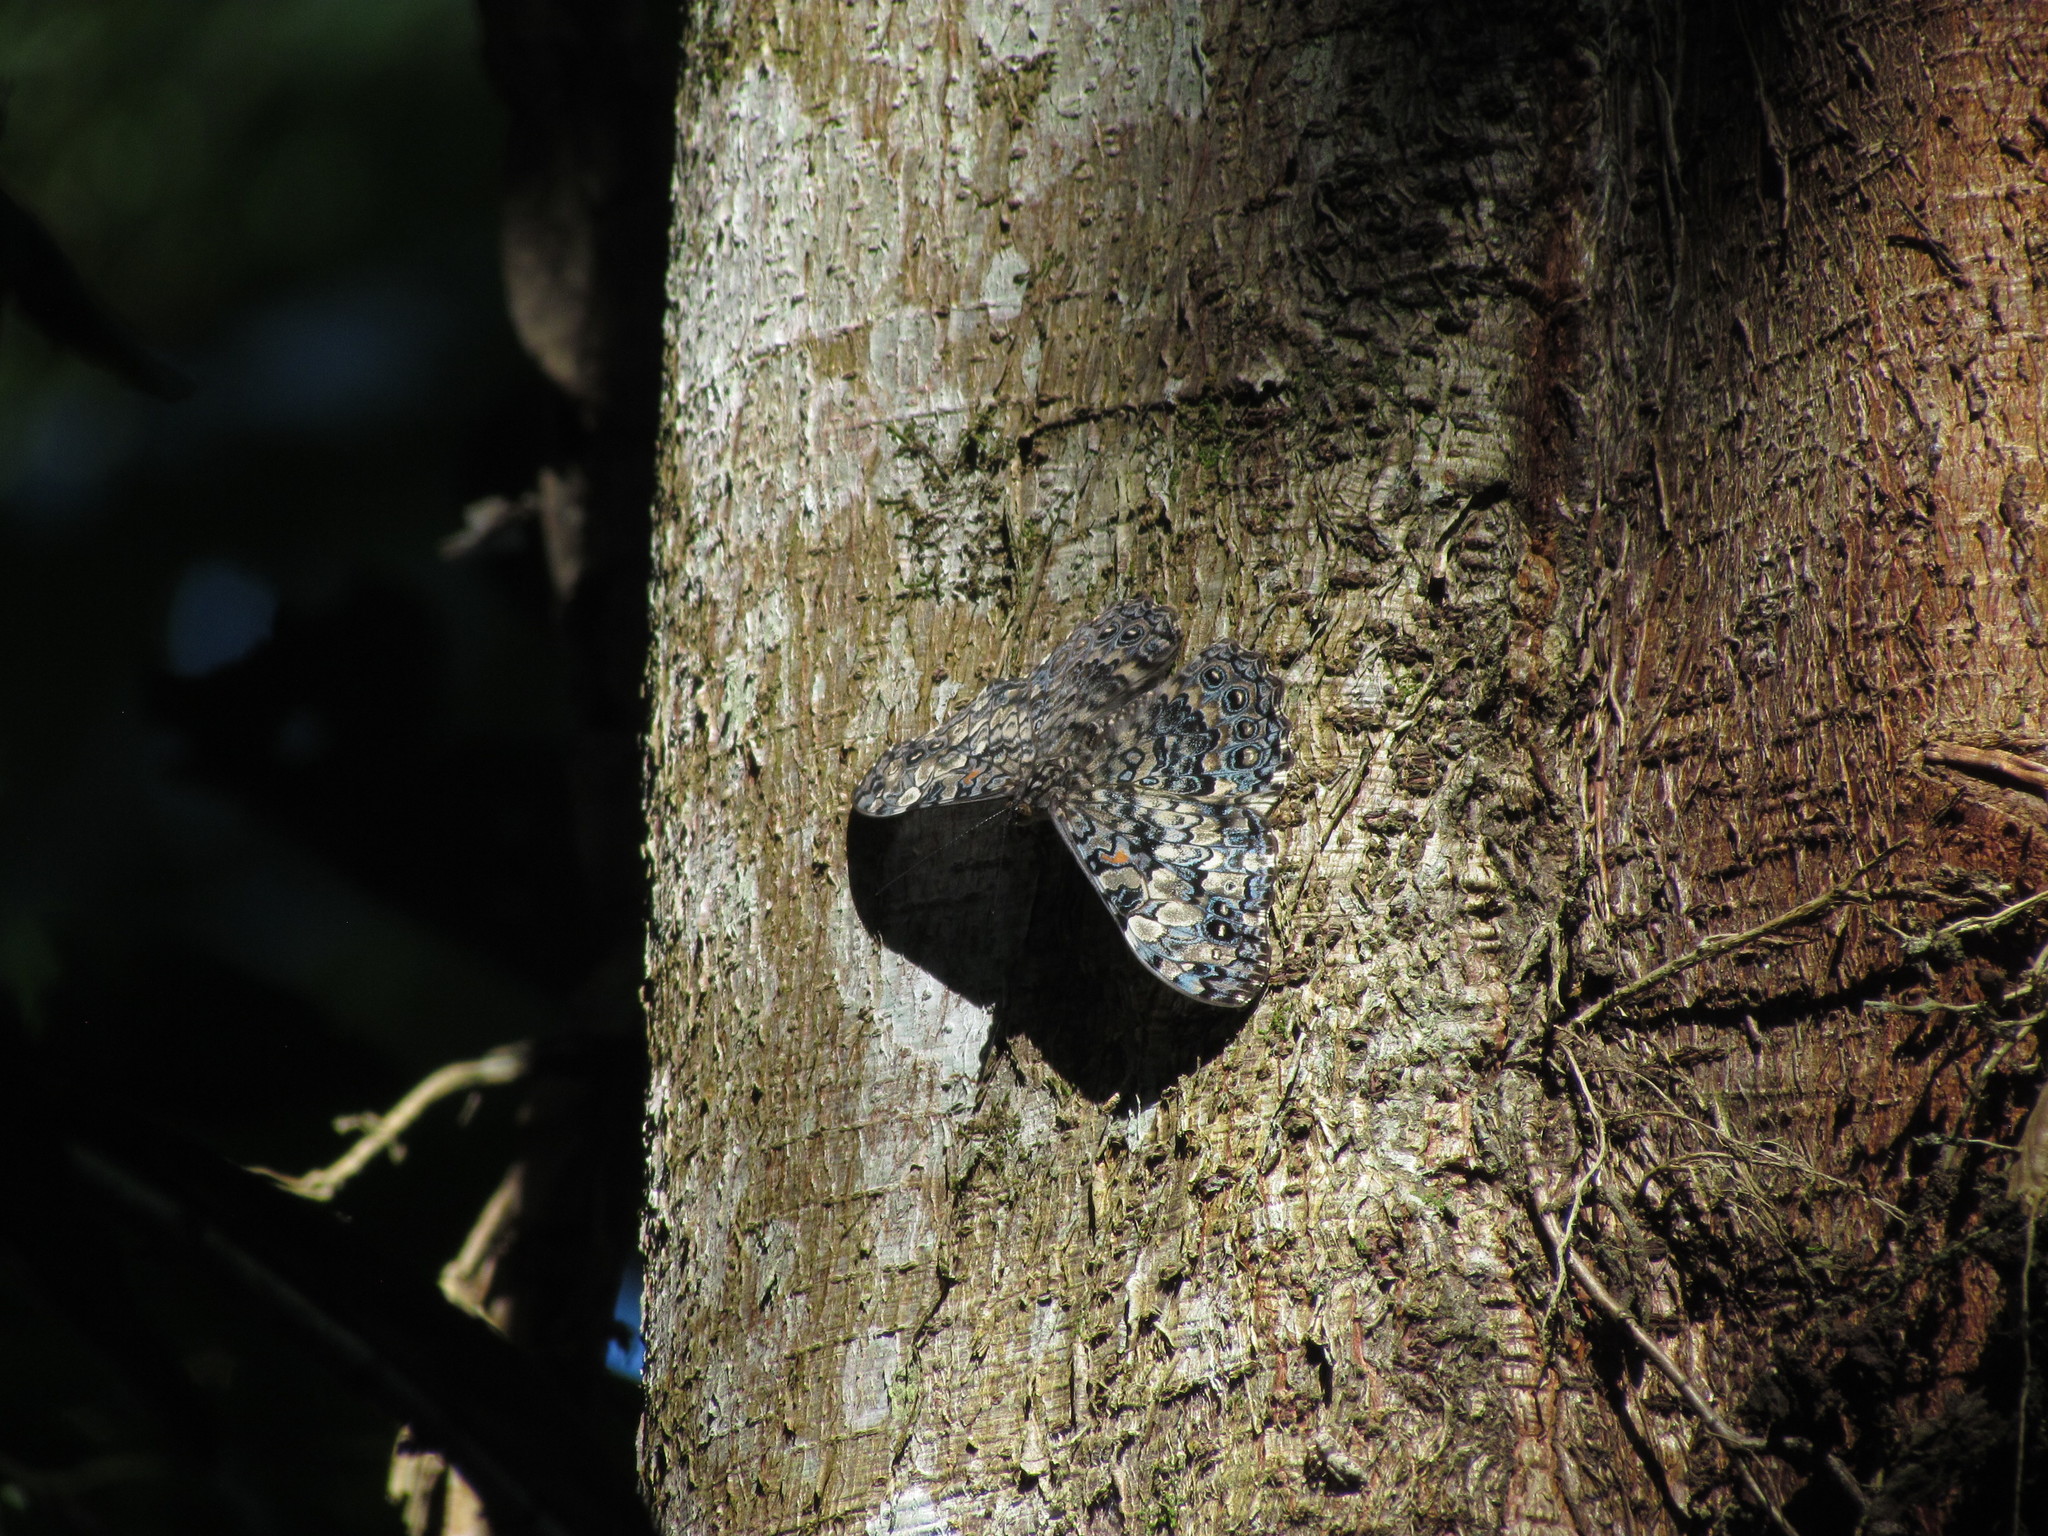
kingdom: Animalia
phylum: Arthropoda
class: Insecta
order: Lepidoptera
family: Nymphalidae
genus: Hamadryas
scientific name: Hamadryas epinome
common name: Epinome cracker
